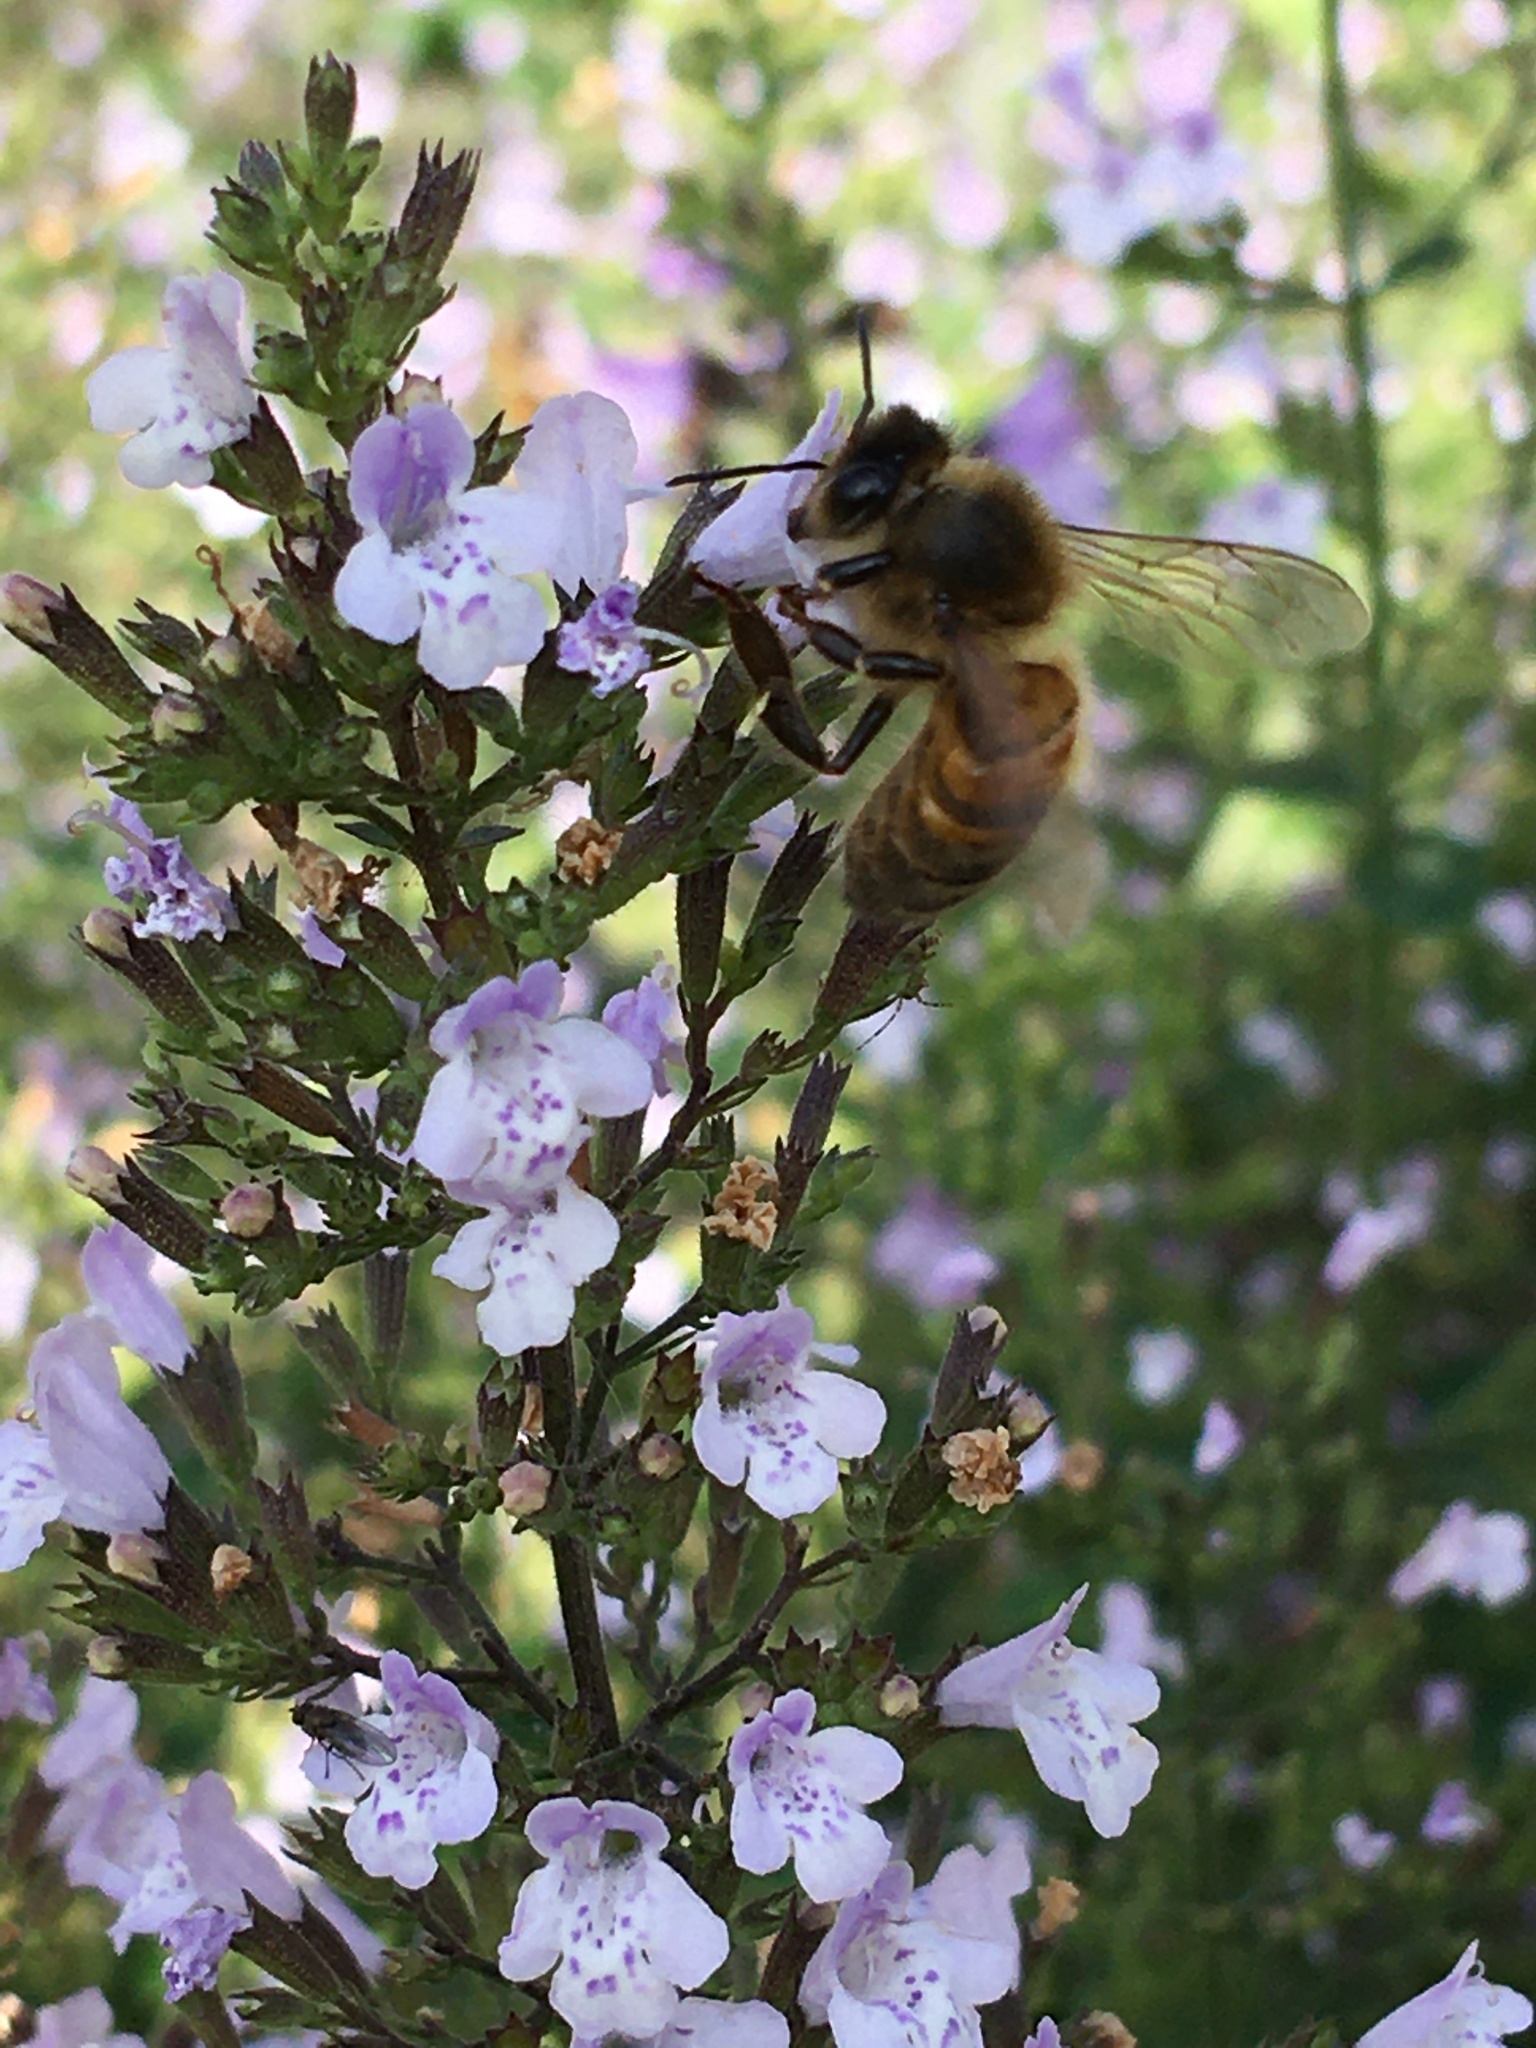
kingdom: Animalia
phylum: Arthropoda
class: Insecta
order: Hymenoptera
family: Apidae
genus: Apis
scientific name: Apis mellifera
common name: Honey bee
